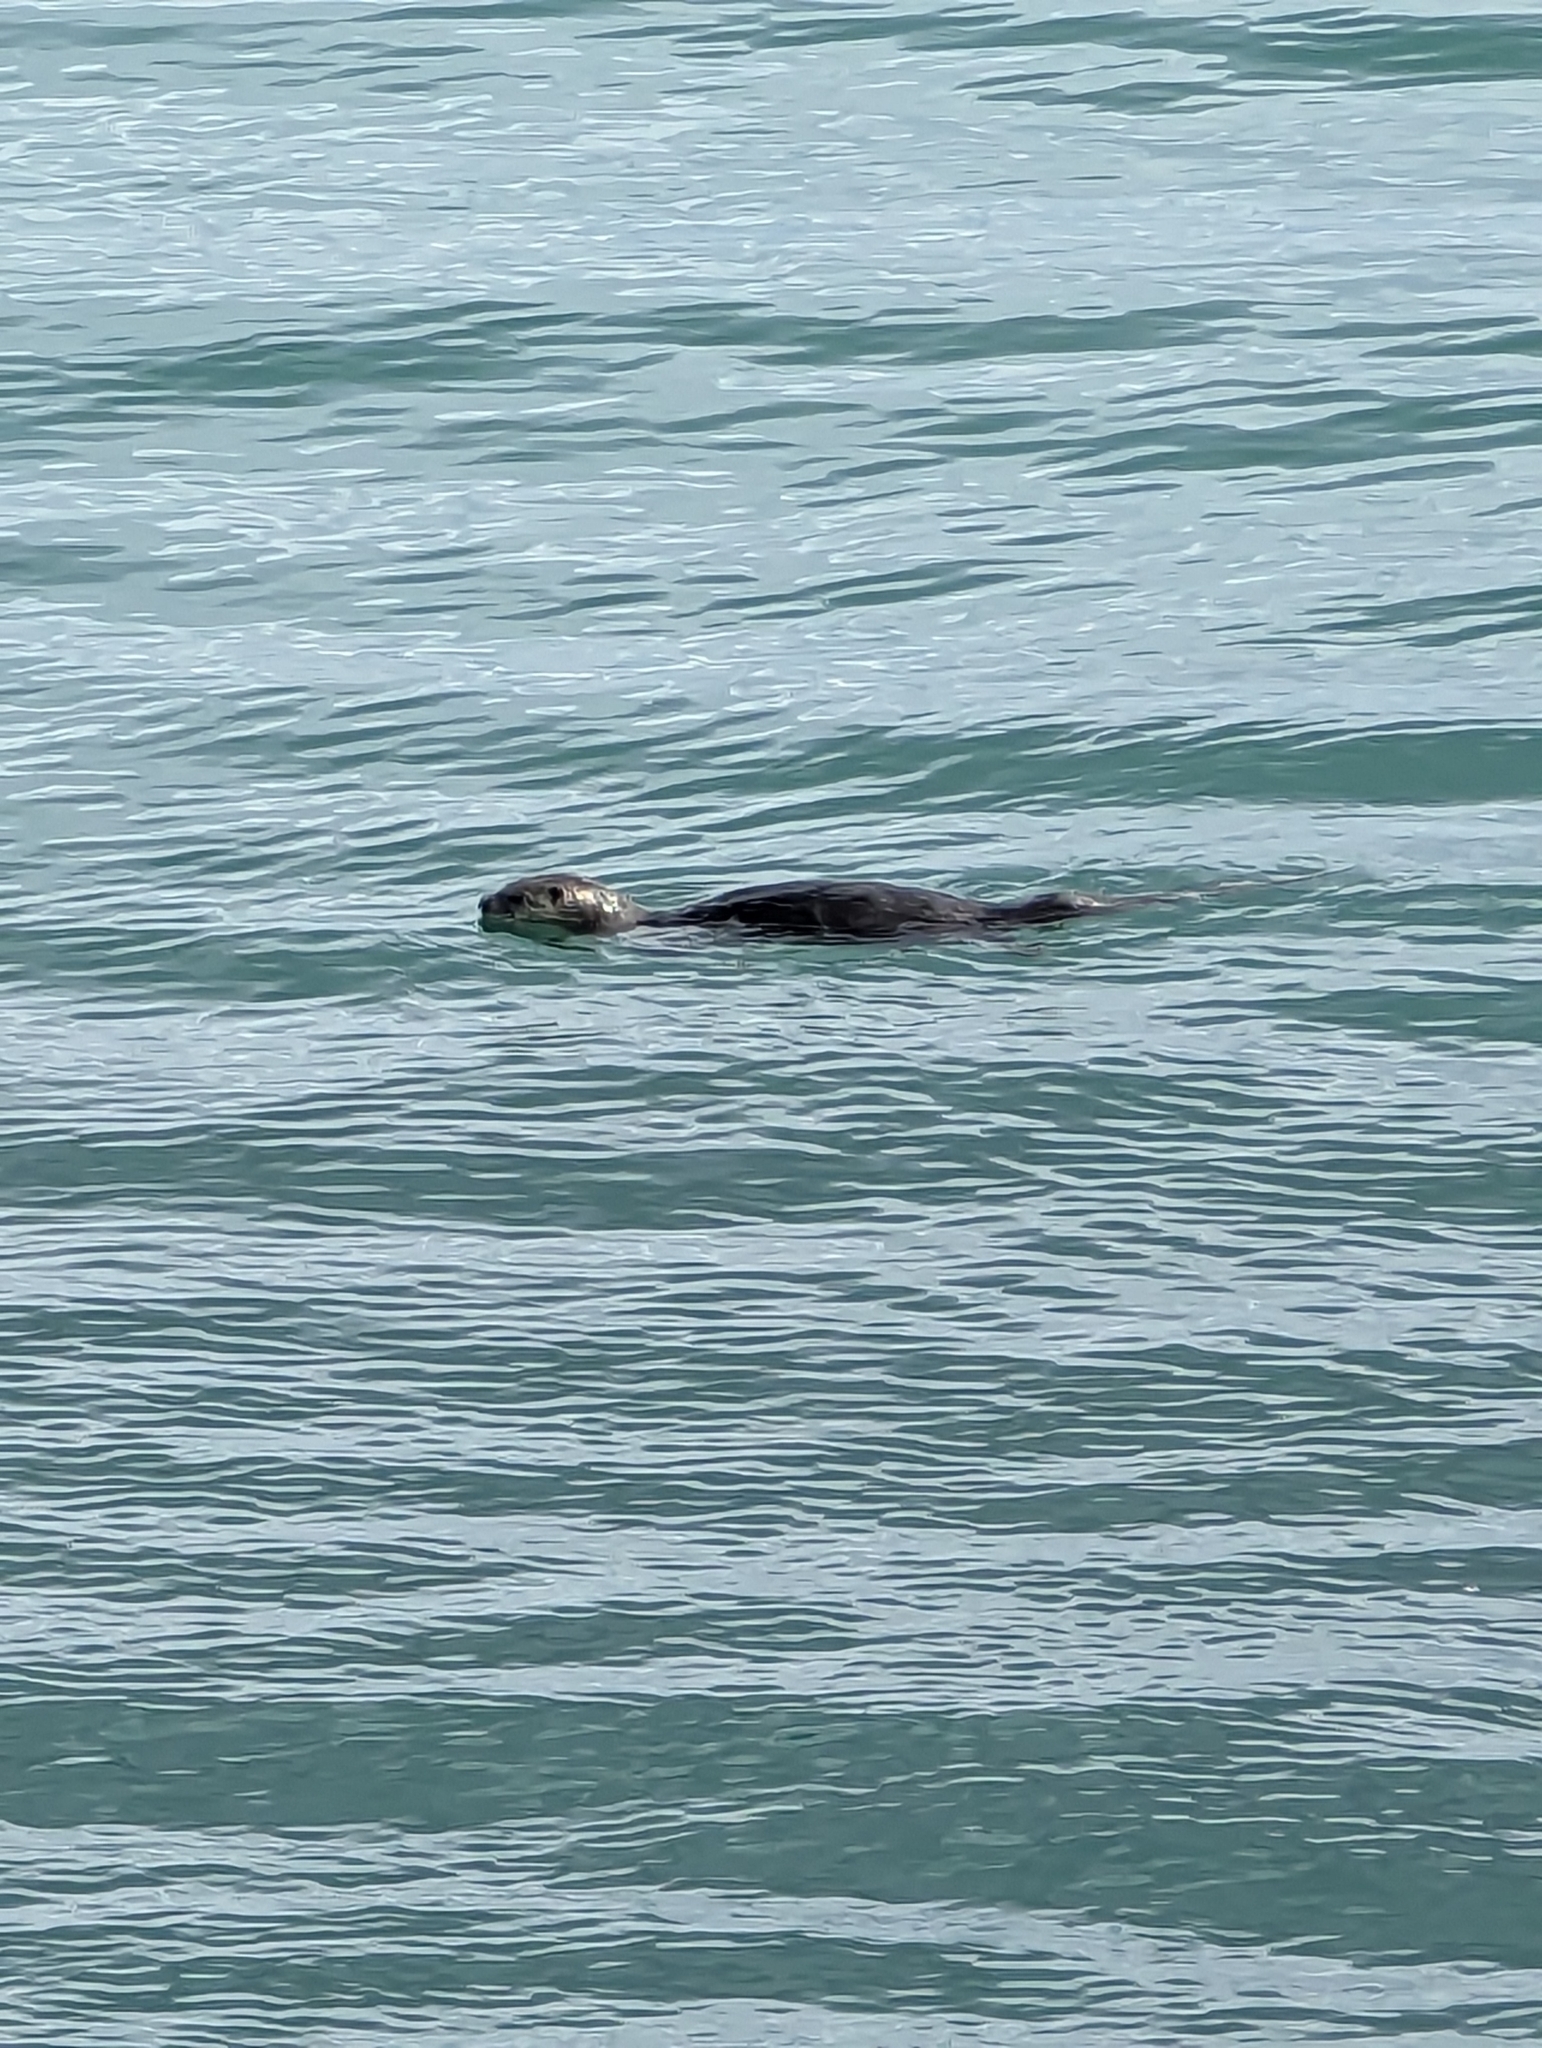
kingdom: Animalia
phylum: Chordata
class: Mammalia
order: Carnivora
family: Mustelidae
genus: Lontra
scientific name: Lontra canadensis
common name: North american river otter
